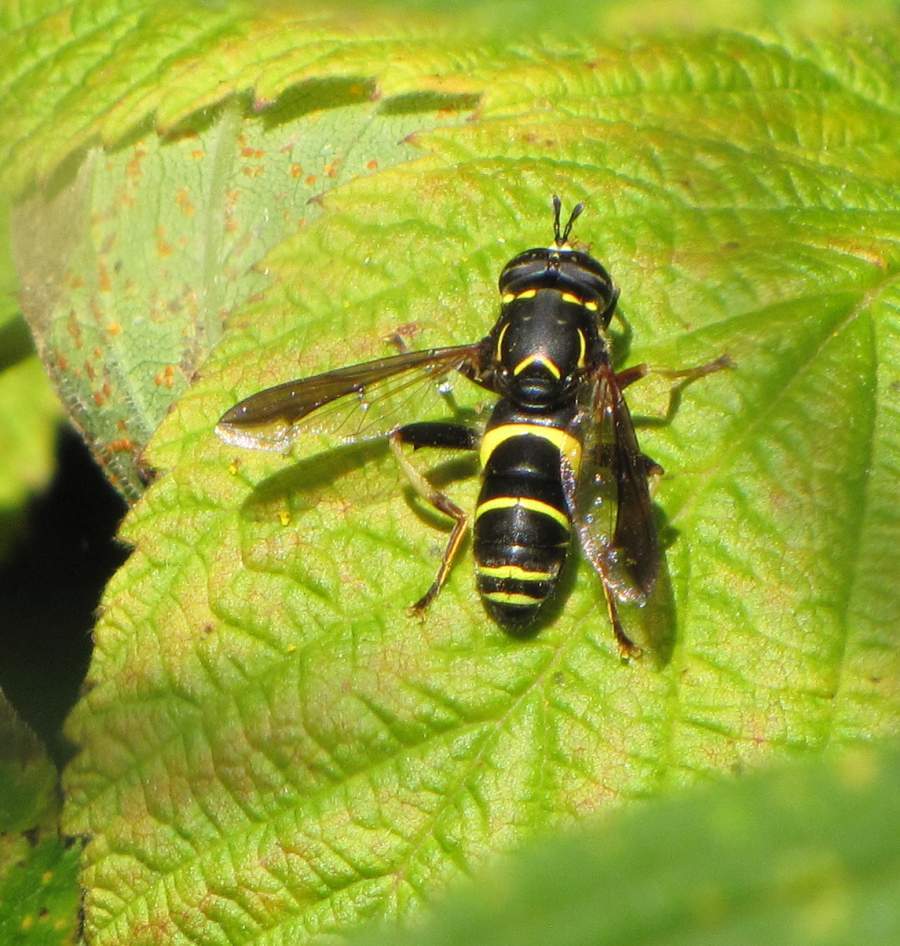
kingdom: Animalia
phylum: Arthropoda
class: Insecta
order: Diptera
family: Syrphidae
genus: Spilomyia
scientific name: Spilomyia sayi
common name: Four-lined hornet fly
